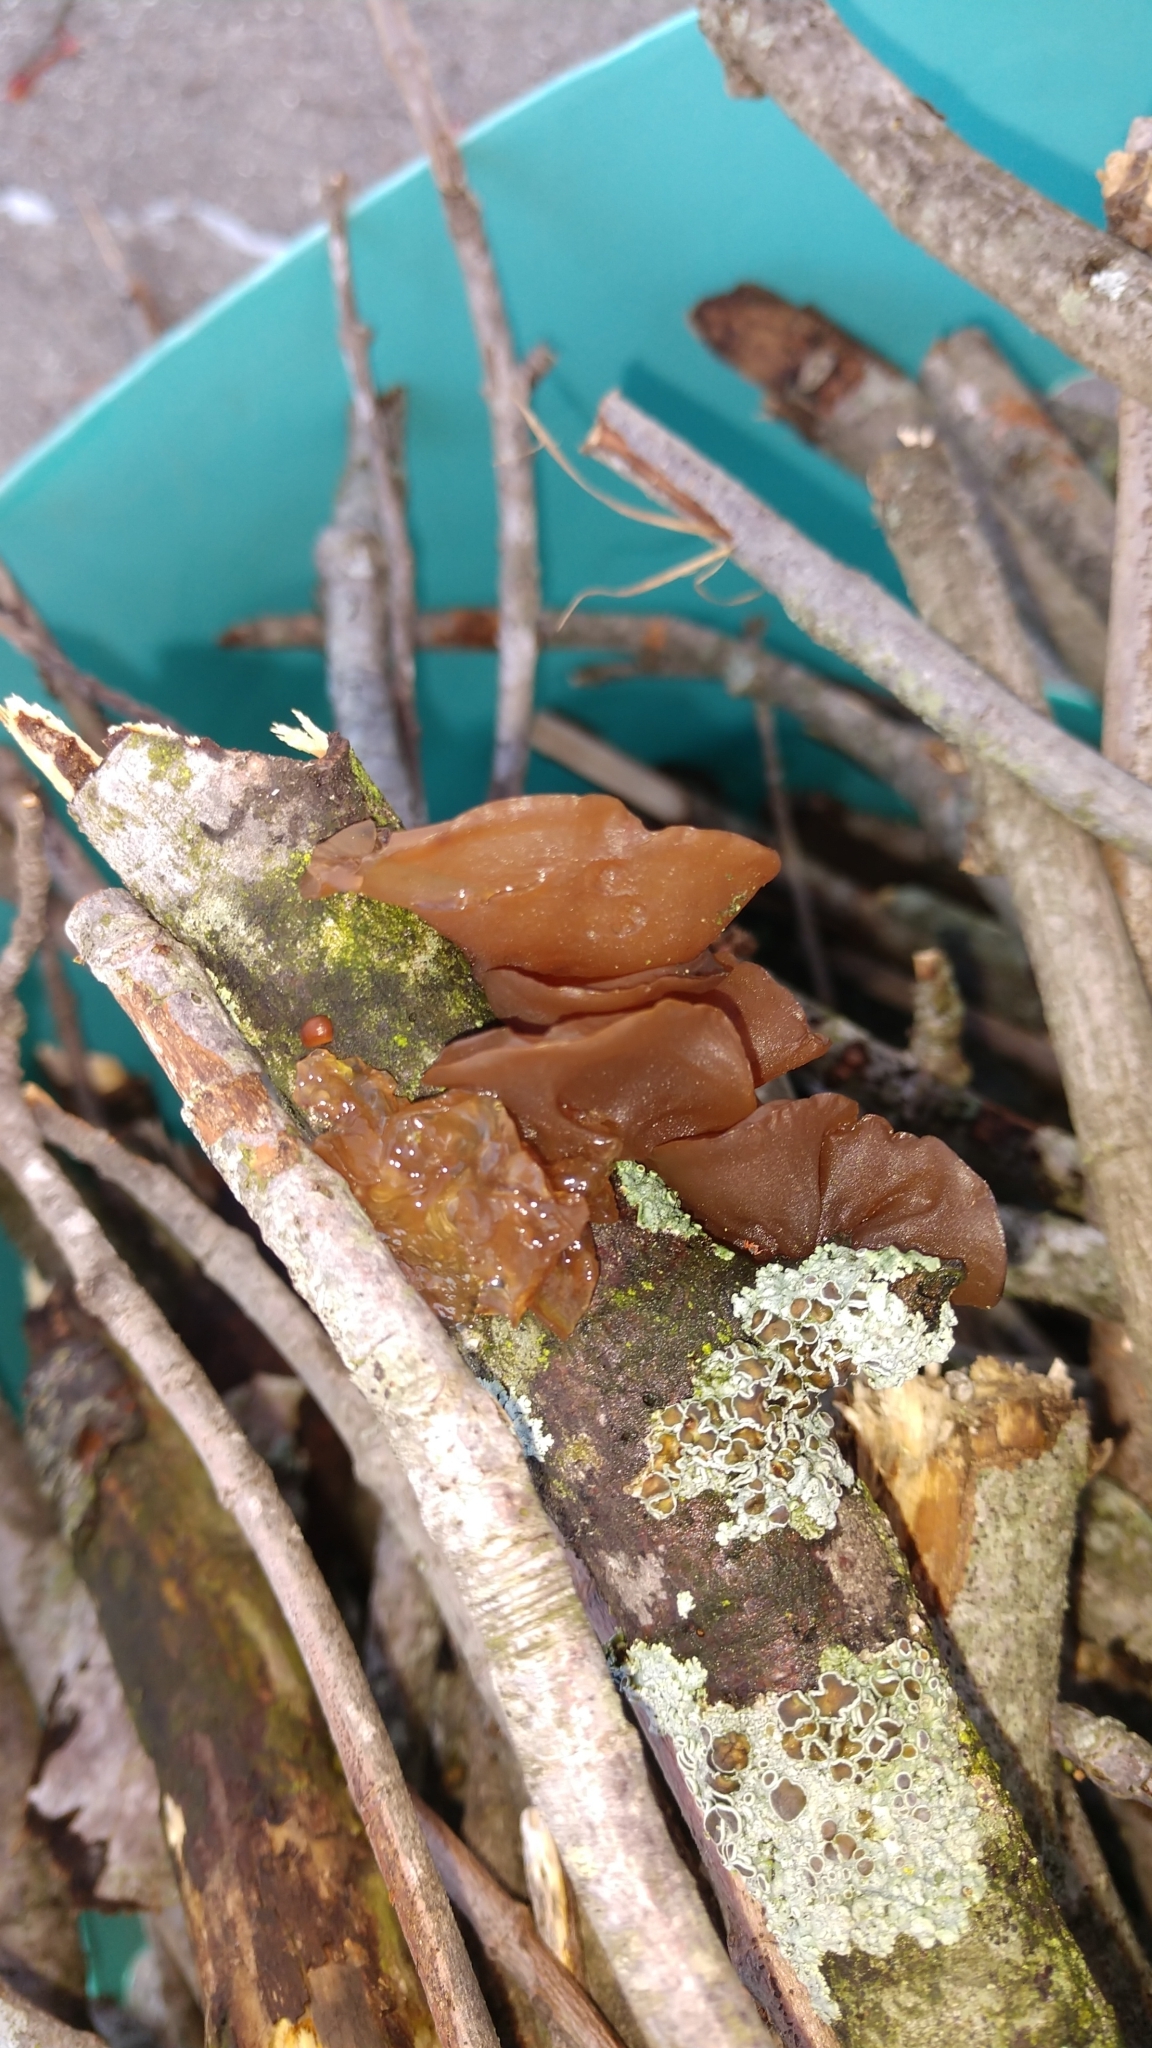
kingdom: Fungi
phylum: Basidiomycota
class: Agaricomycetes
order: Auriculariales
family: Auriculariaceae
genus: Auricularia
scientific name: Auricularia angiospermarum
